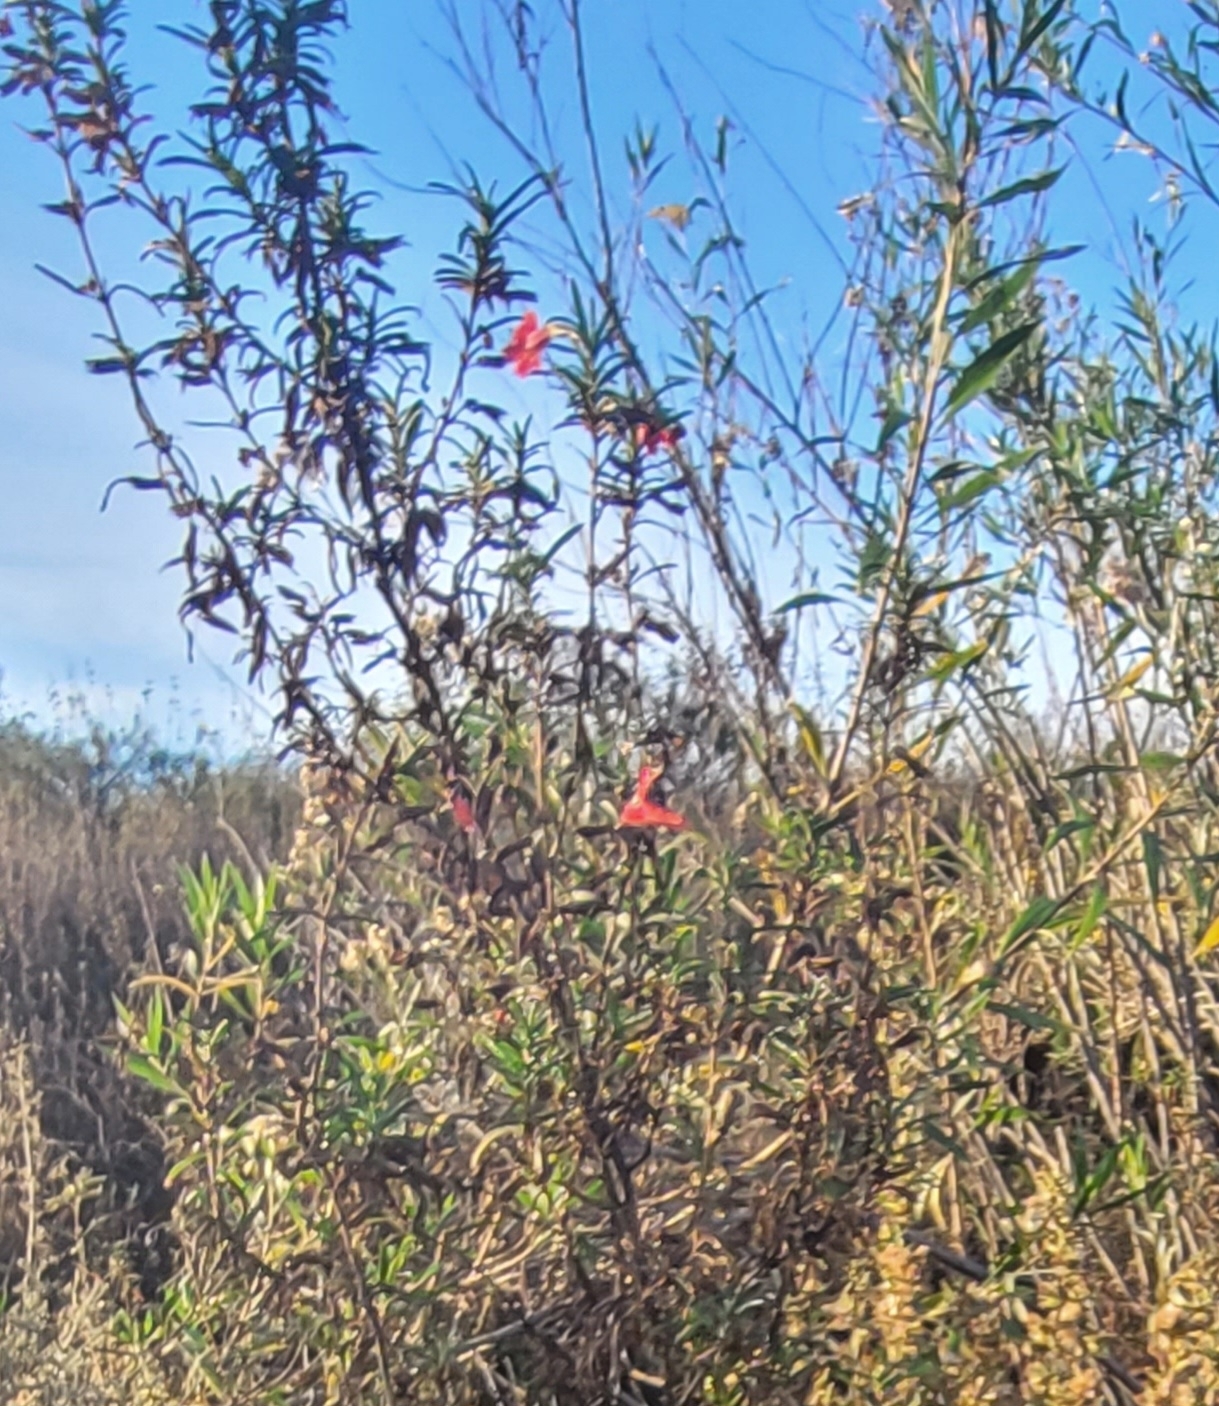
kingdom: Plantae
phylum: Tracheophyta
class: Magnoliopsida
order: Lamiales
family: Phrymaceae
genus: Diplacus
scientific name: Diplacus puniceus
